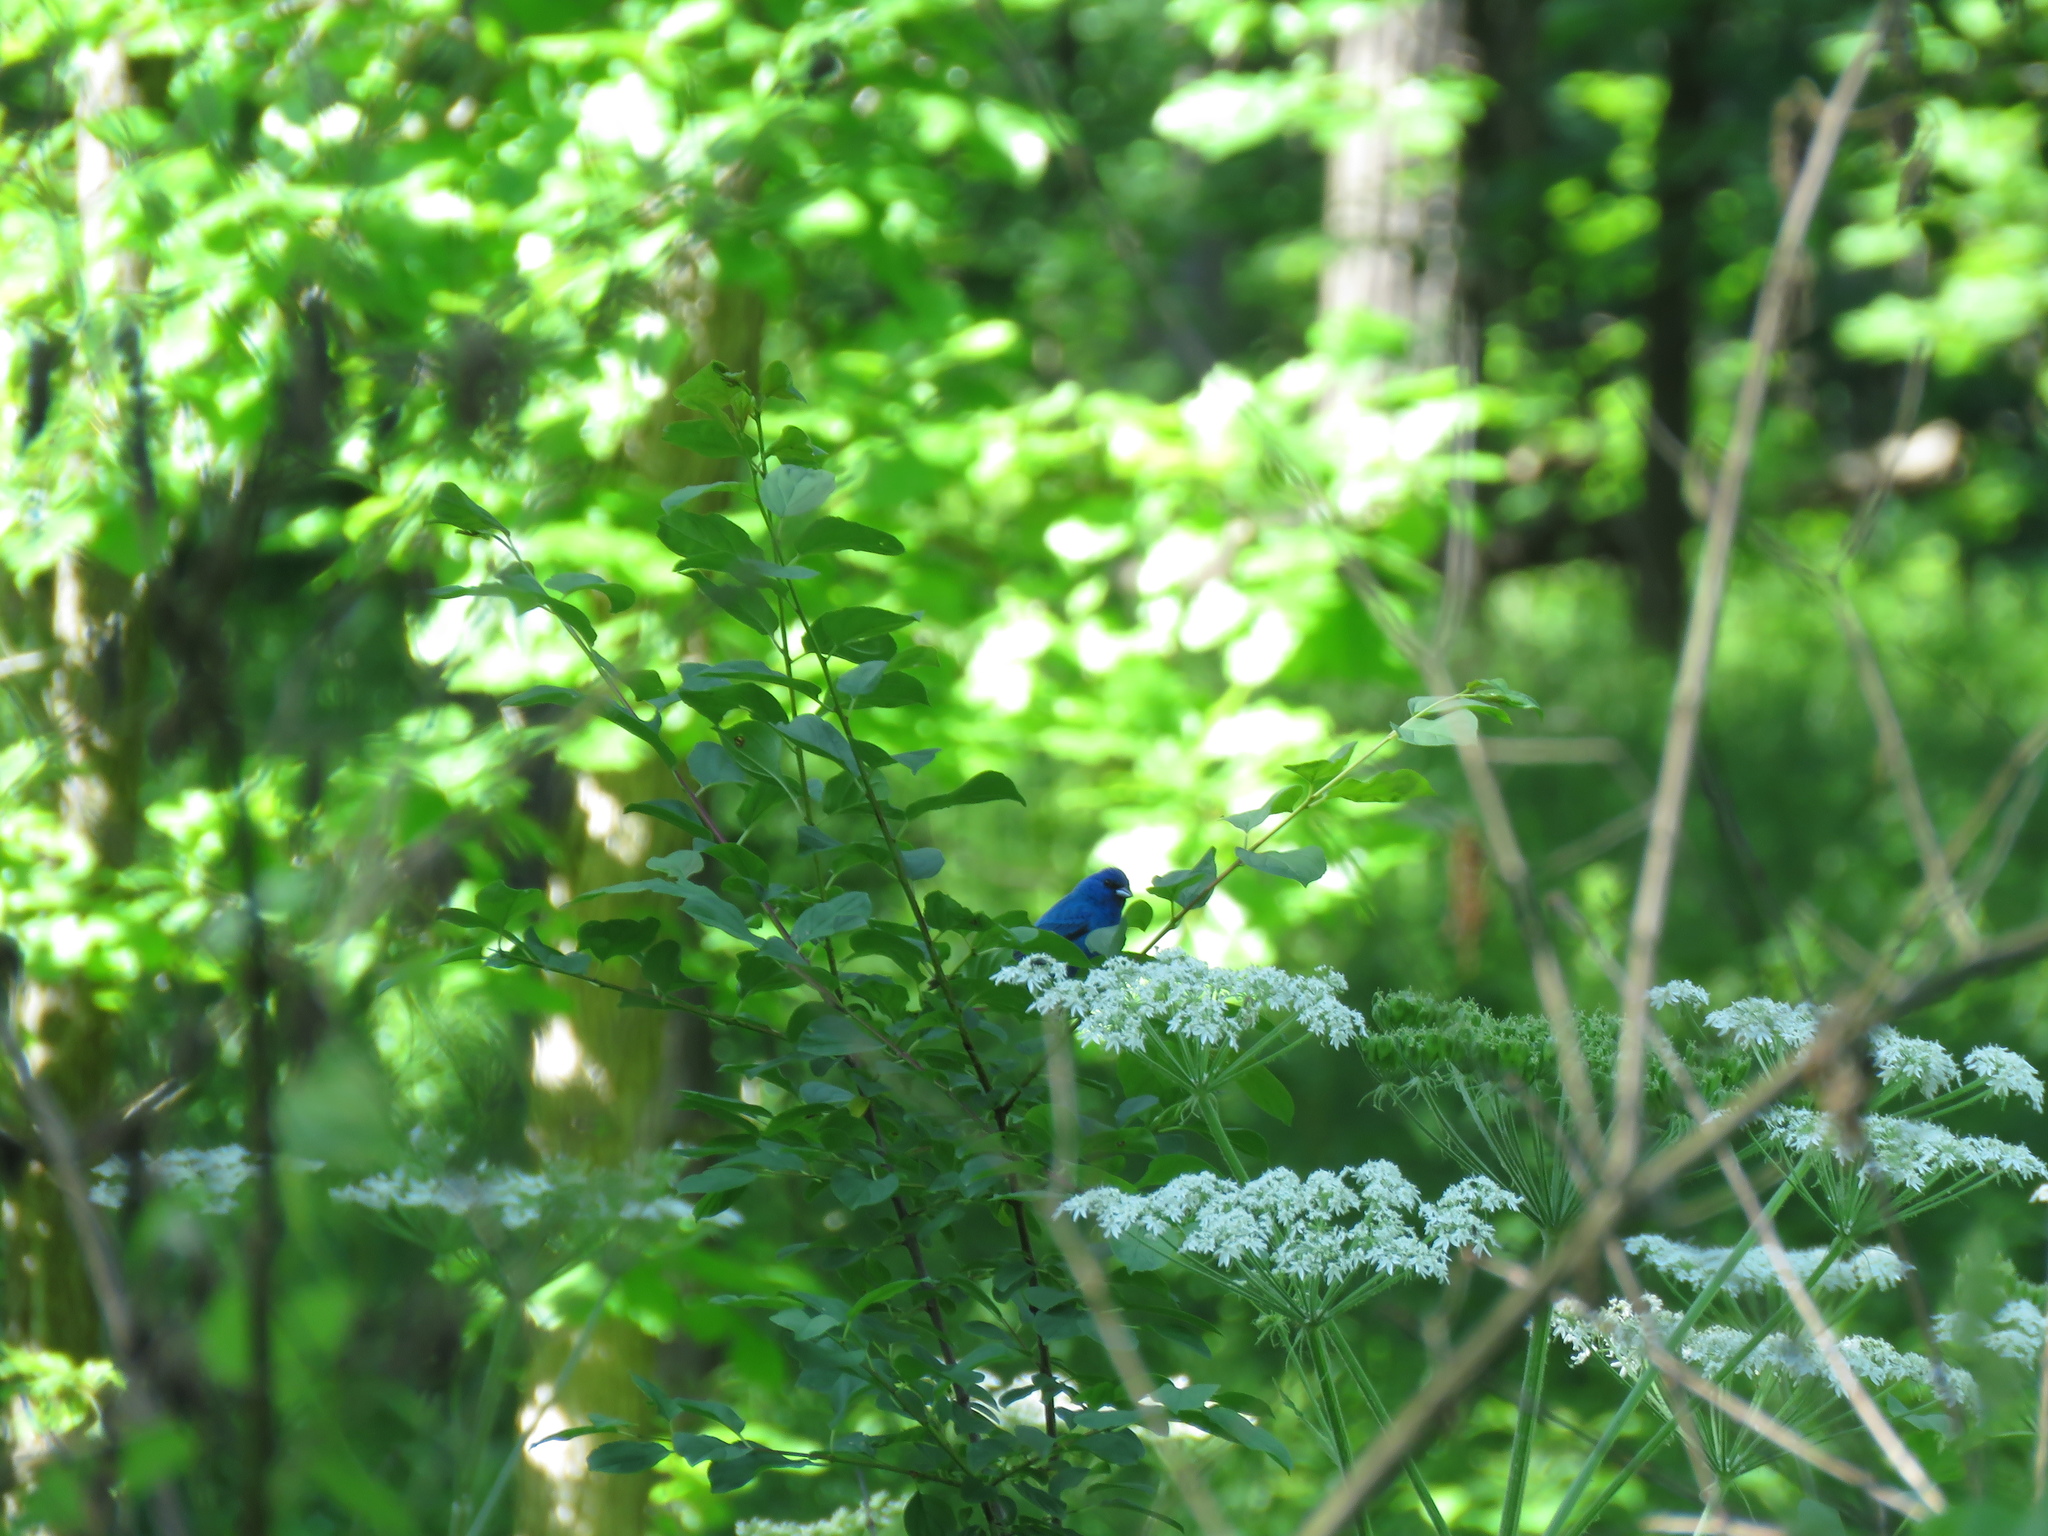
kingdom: Animalia
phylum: Chordata
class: Aves
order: Passeriformes
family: Cardinalidae
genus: Passerina
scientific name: Passerina cyanea
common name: Indigo bunting
